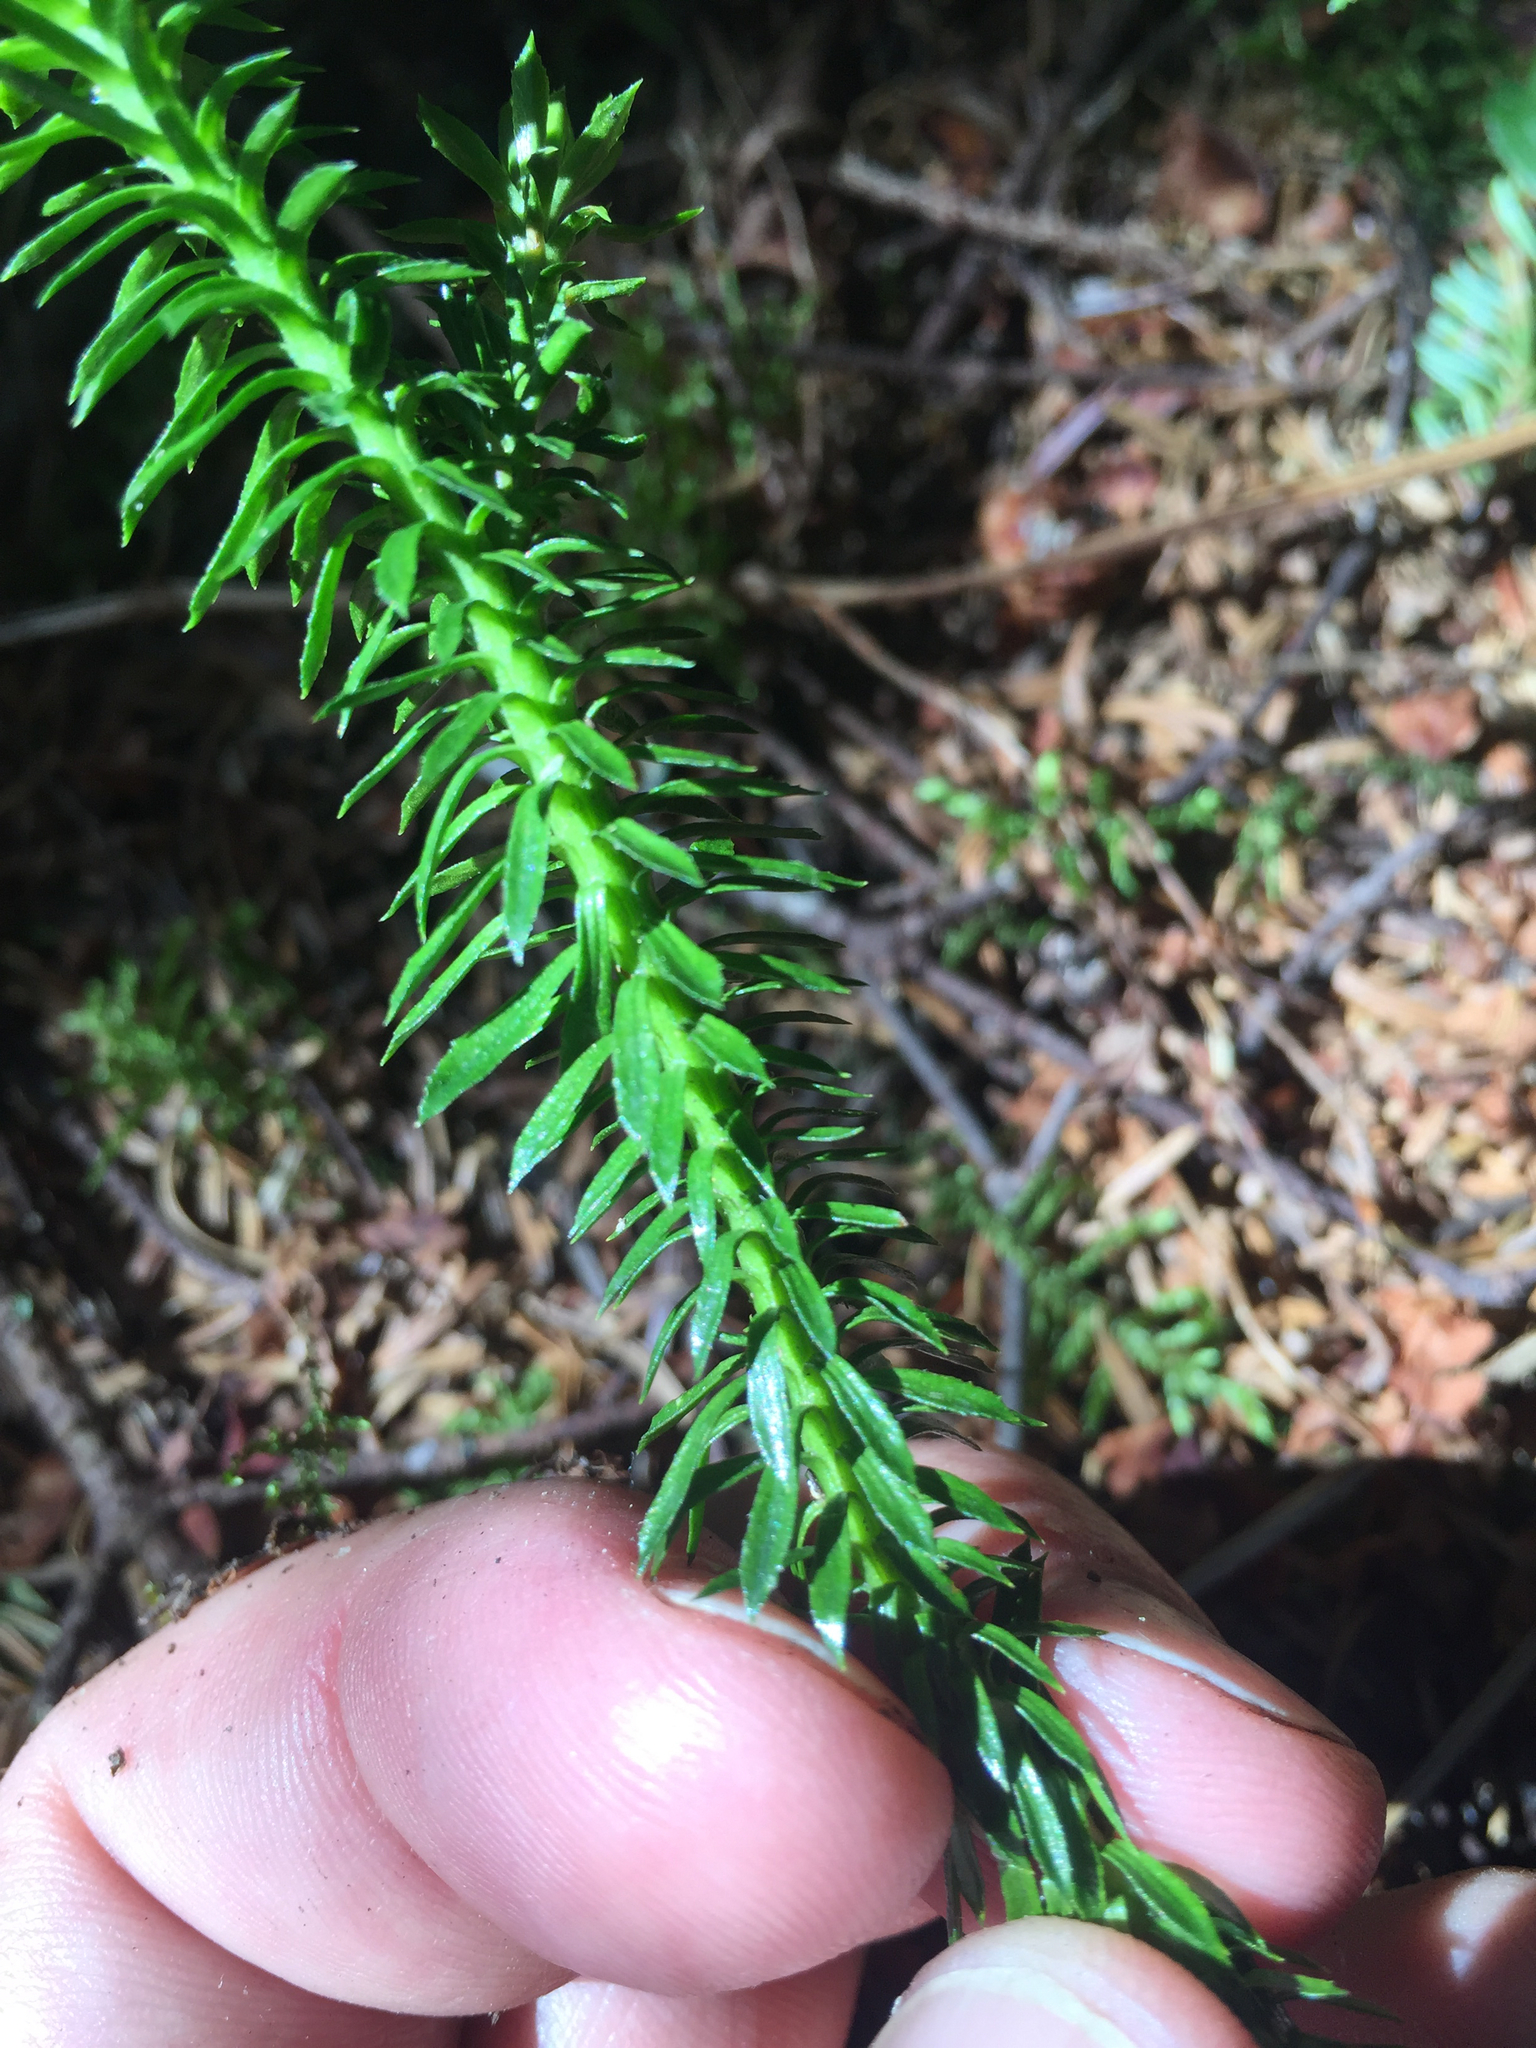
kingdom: Plantae
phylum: Tracheophyta
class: Lycopodiopsida
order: Lycopodiales
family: Lycopodiaceae
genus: Huperzia
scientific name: Huperzia lucidula
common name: Shining clubmoss
